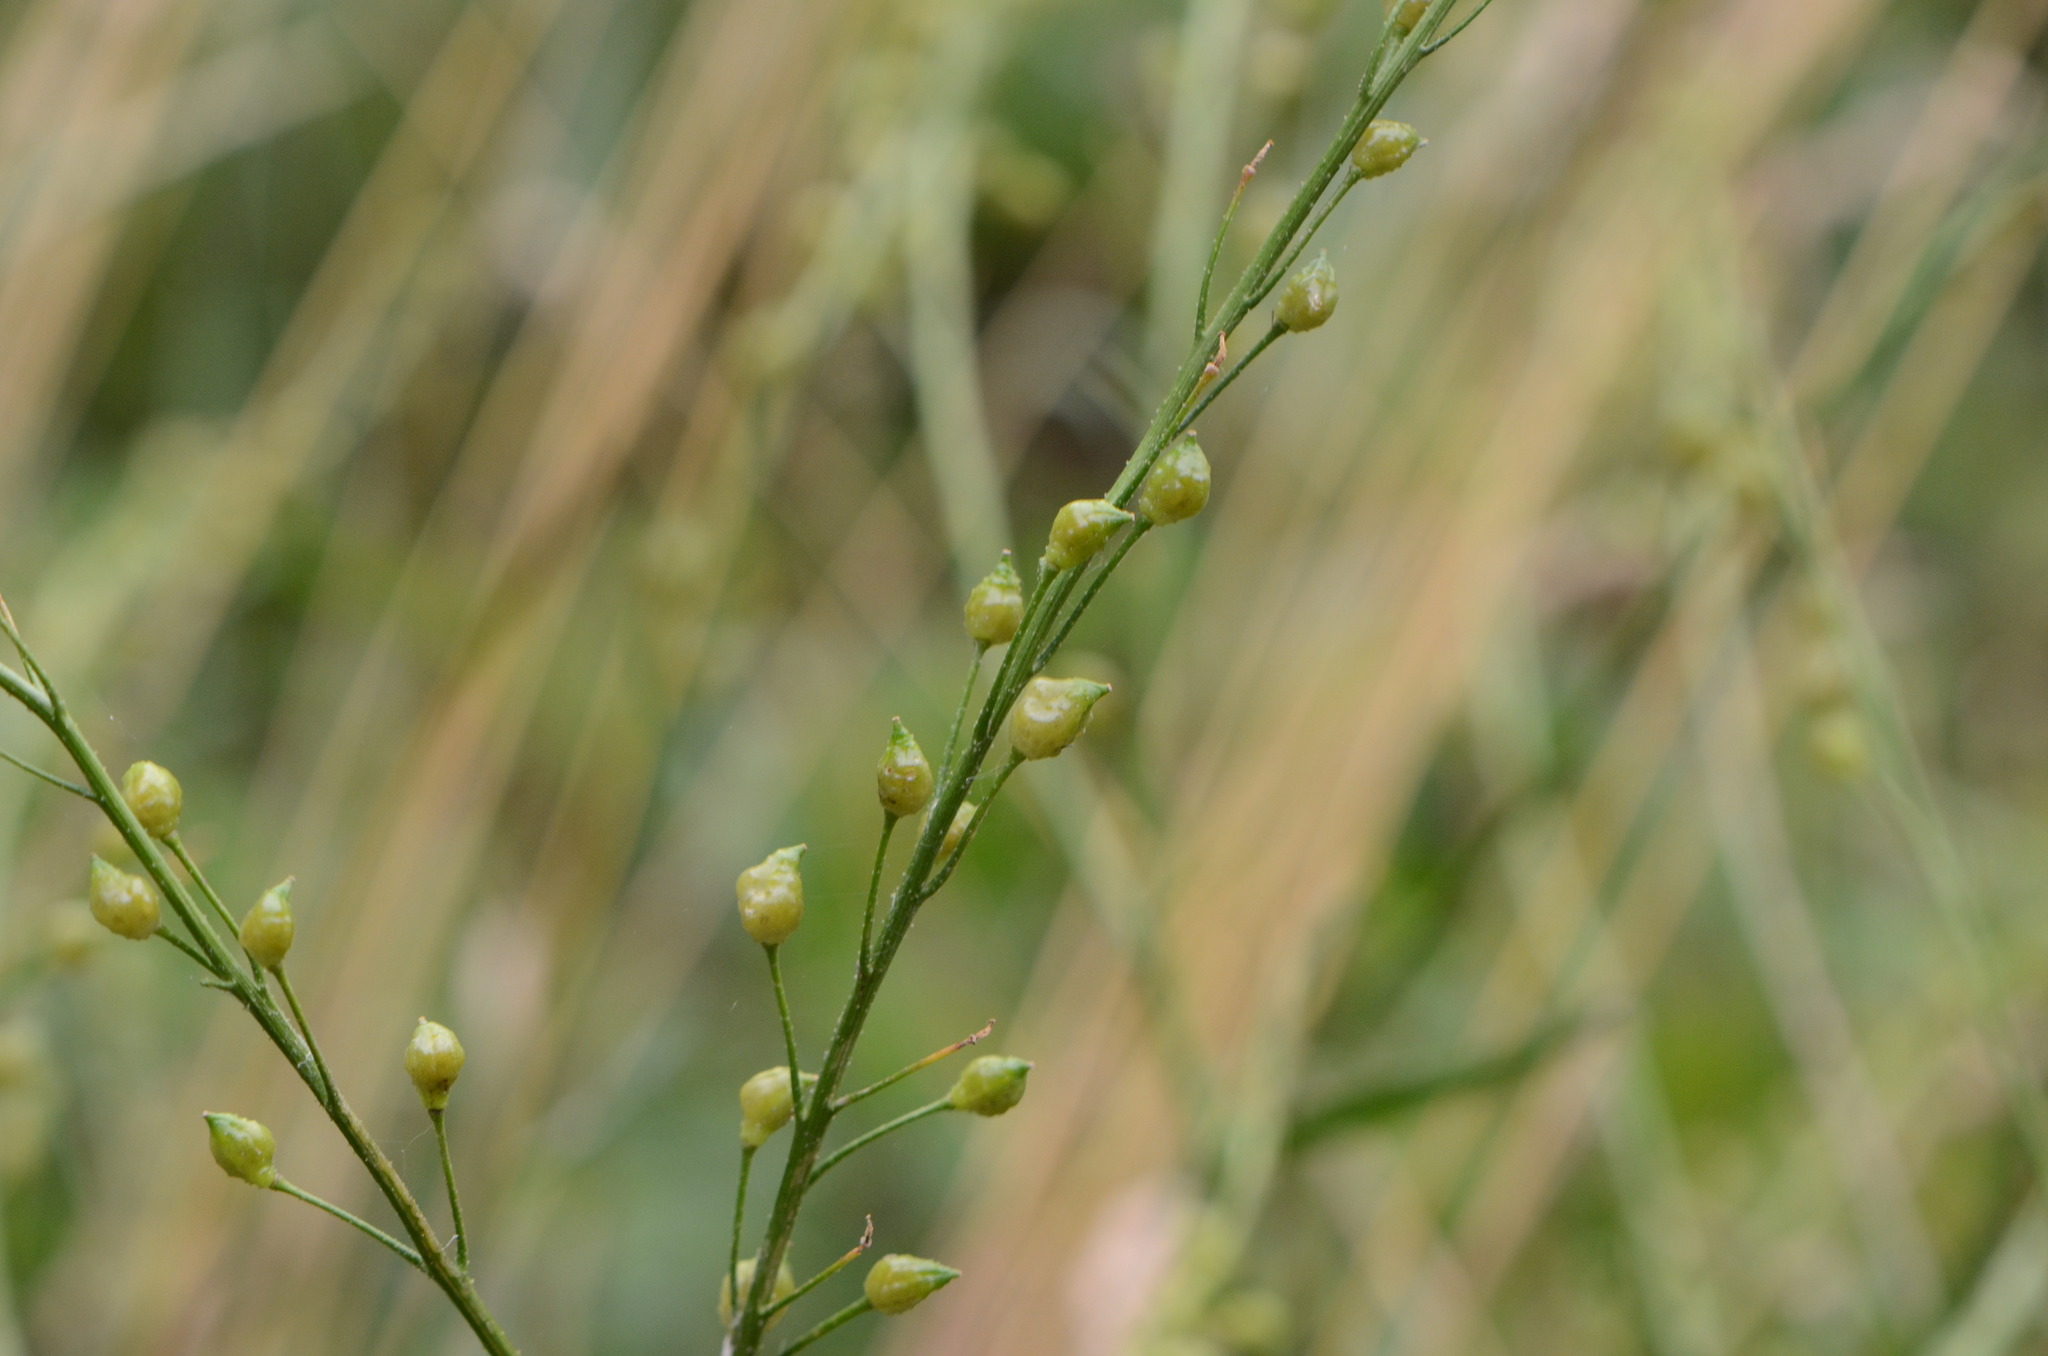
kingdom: Plantae
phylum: Tracheophyta
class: Magnoliopsida
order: Brassicales
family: Brassicaceae
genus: Bunias
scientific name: Bunias orientalis
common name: Warty-cabbage
